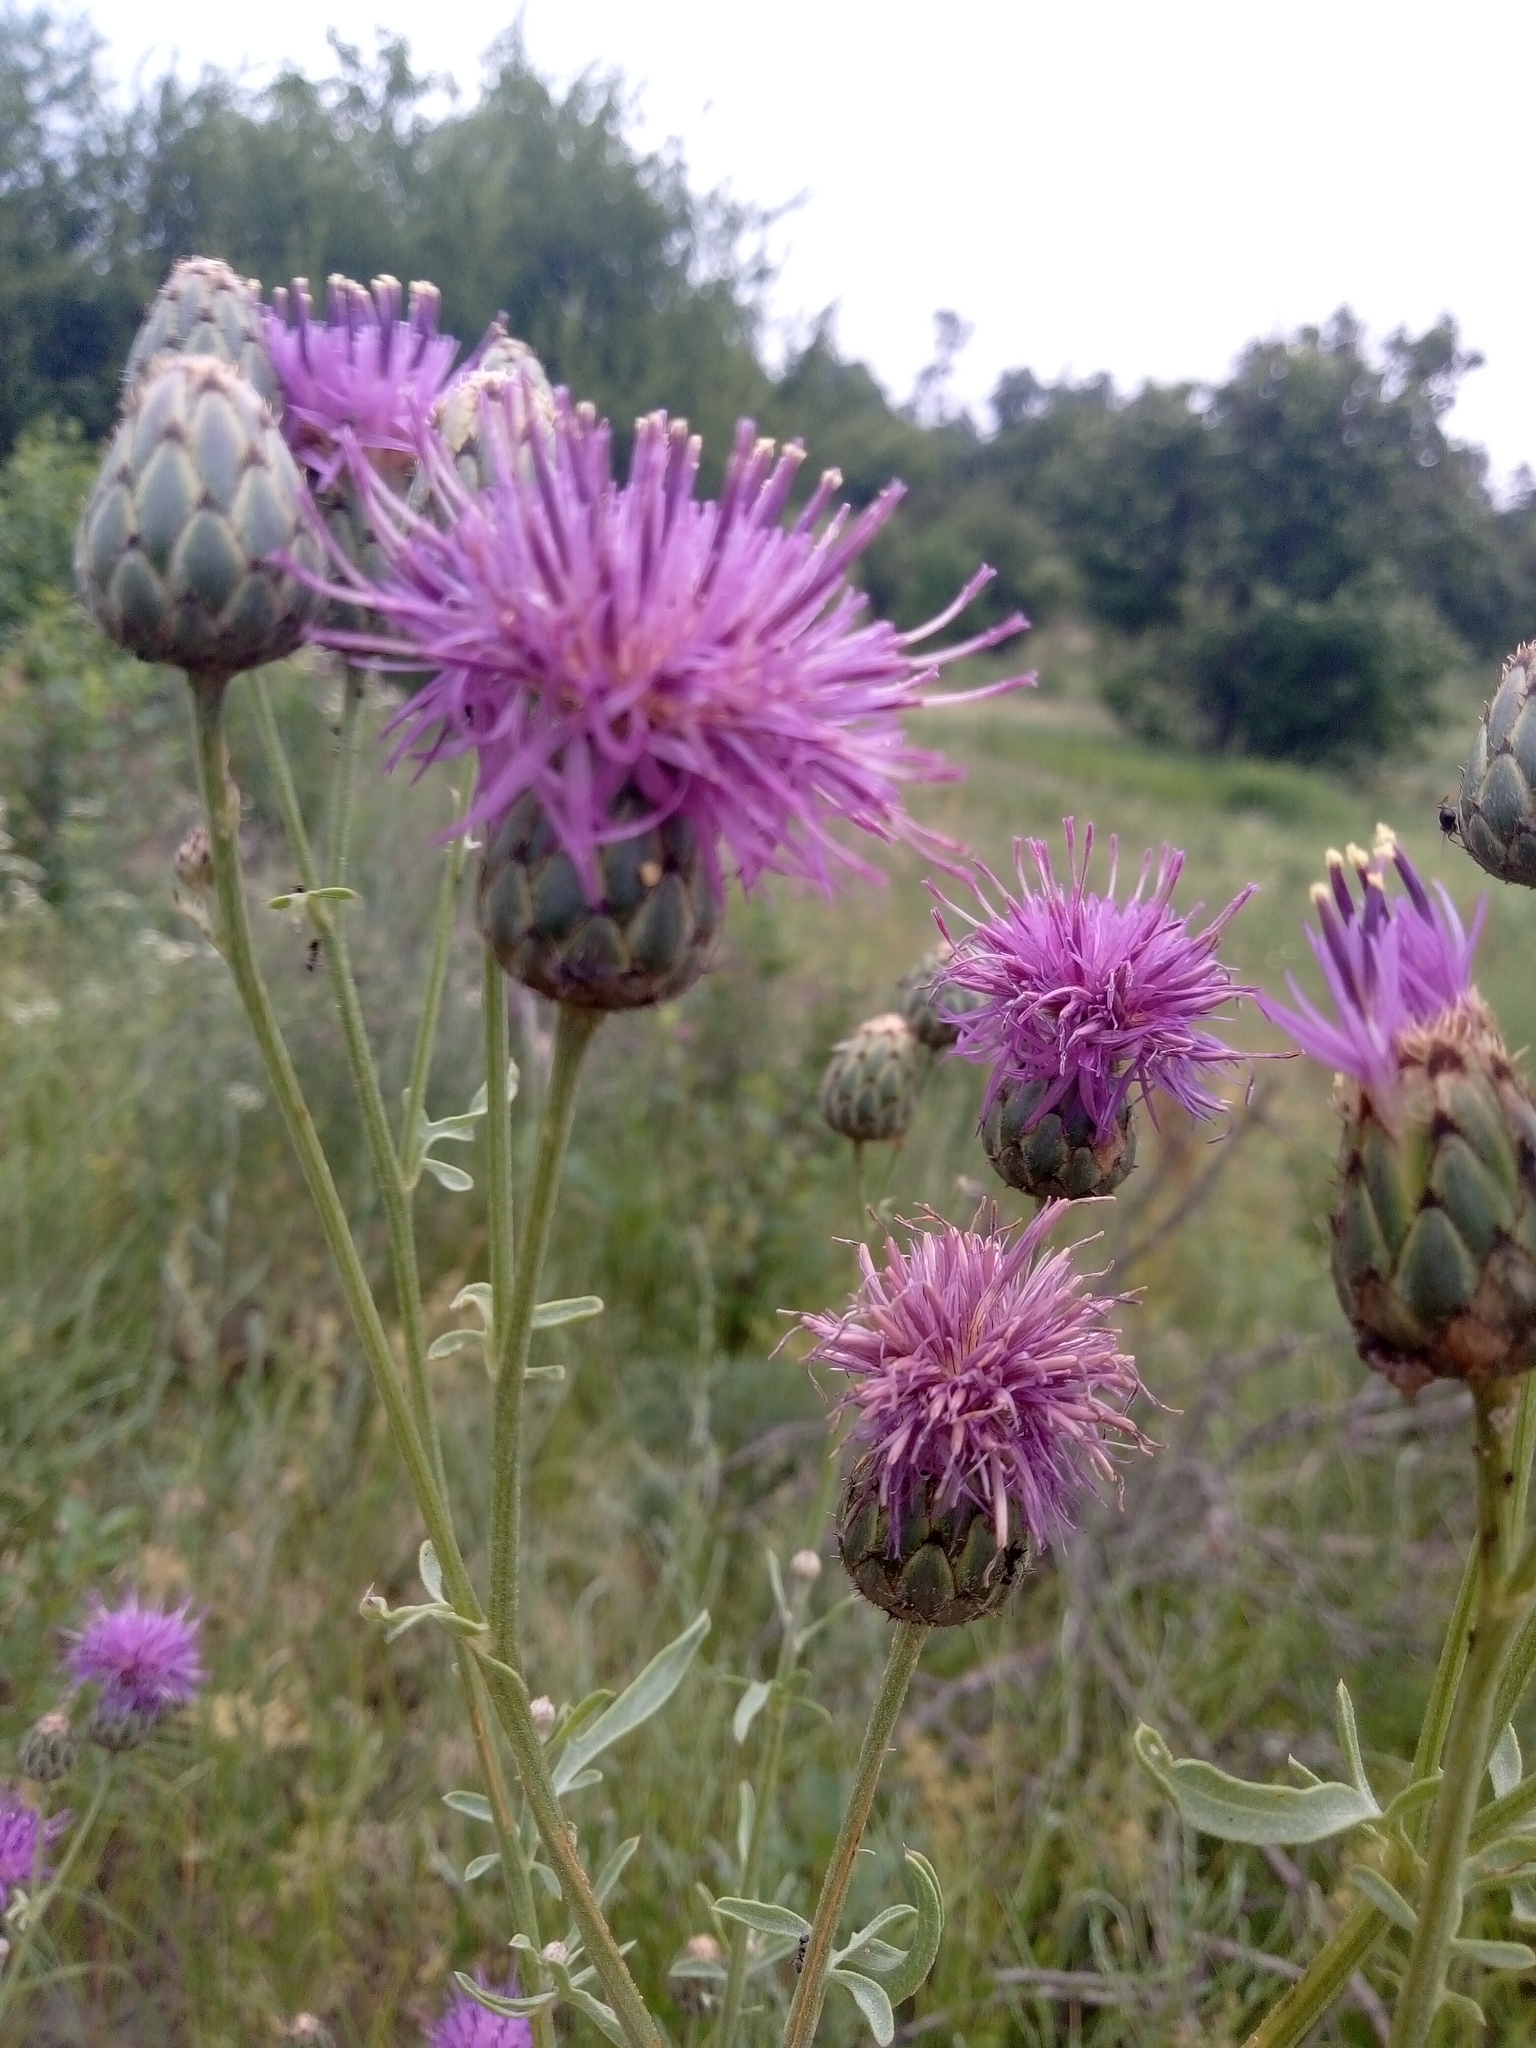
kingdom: Plantae
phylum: Tracheophyta
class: Magnoliopsida
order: Asterales
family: Asteraceae
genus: Centaurea
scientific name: Centaurea scabiosa
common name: Greater knapweed
